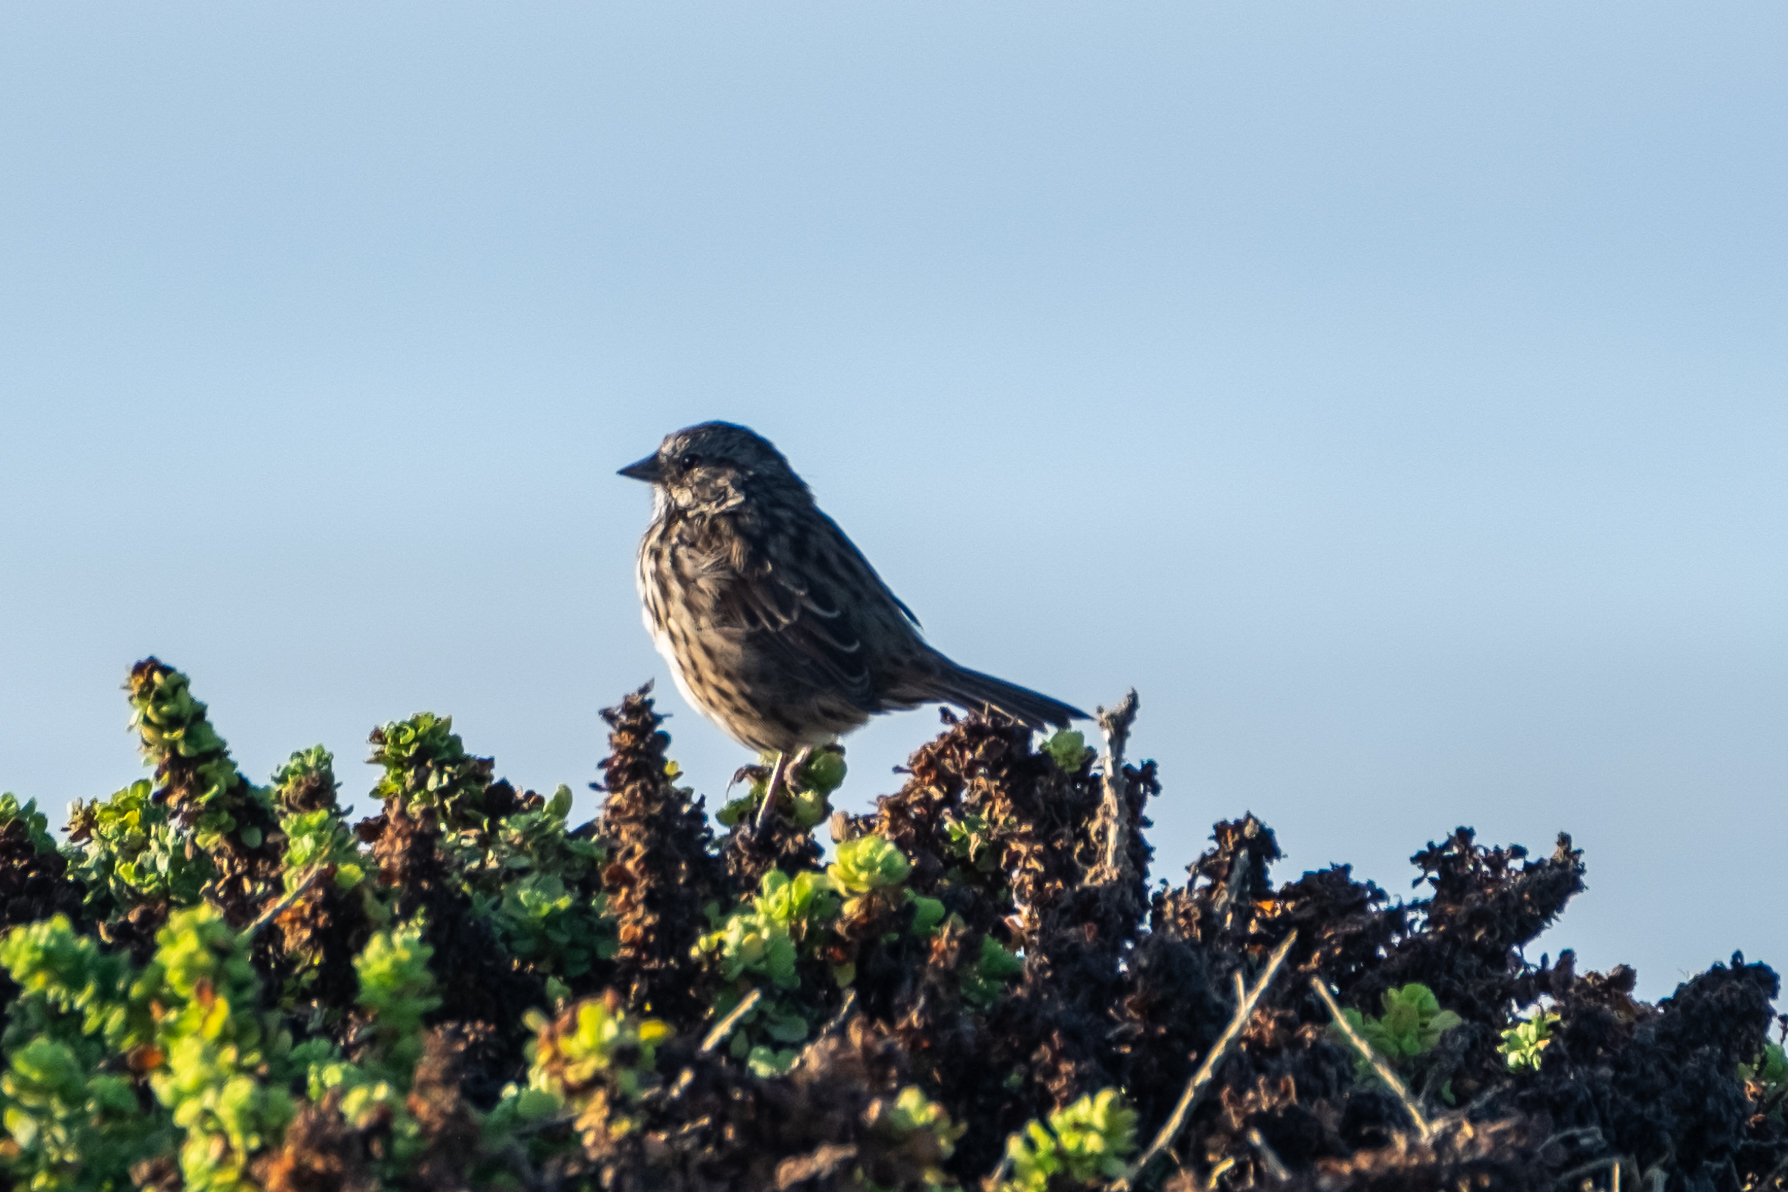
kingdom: Animalia
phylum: Chordata
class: Aves
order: Passeriformes
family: Passerellidae
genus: Melospiza
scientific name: Melospiza melodia
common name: Song sparrow
